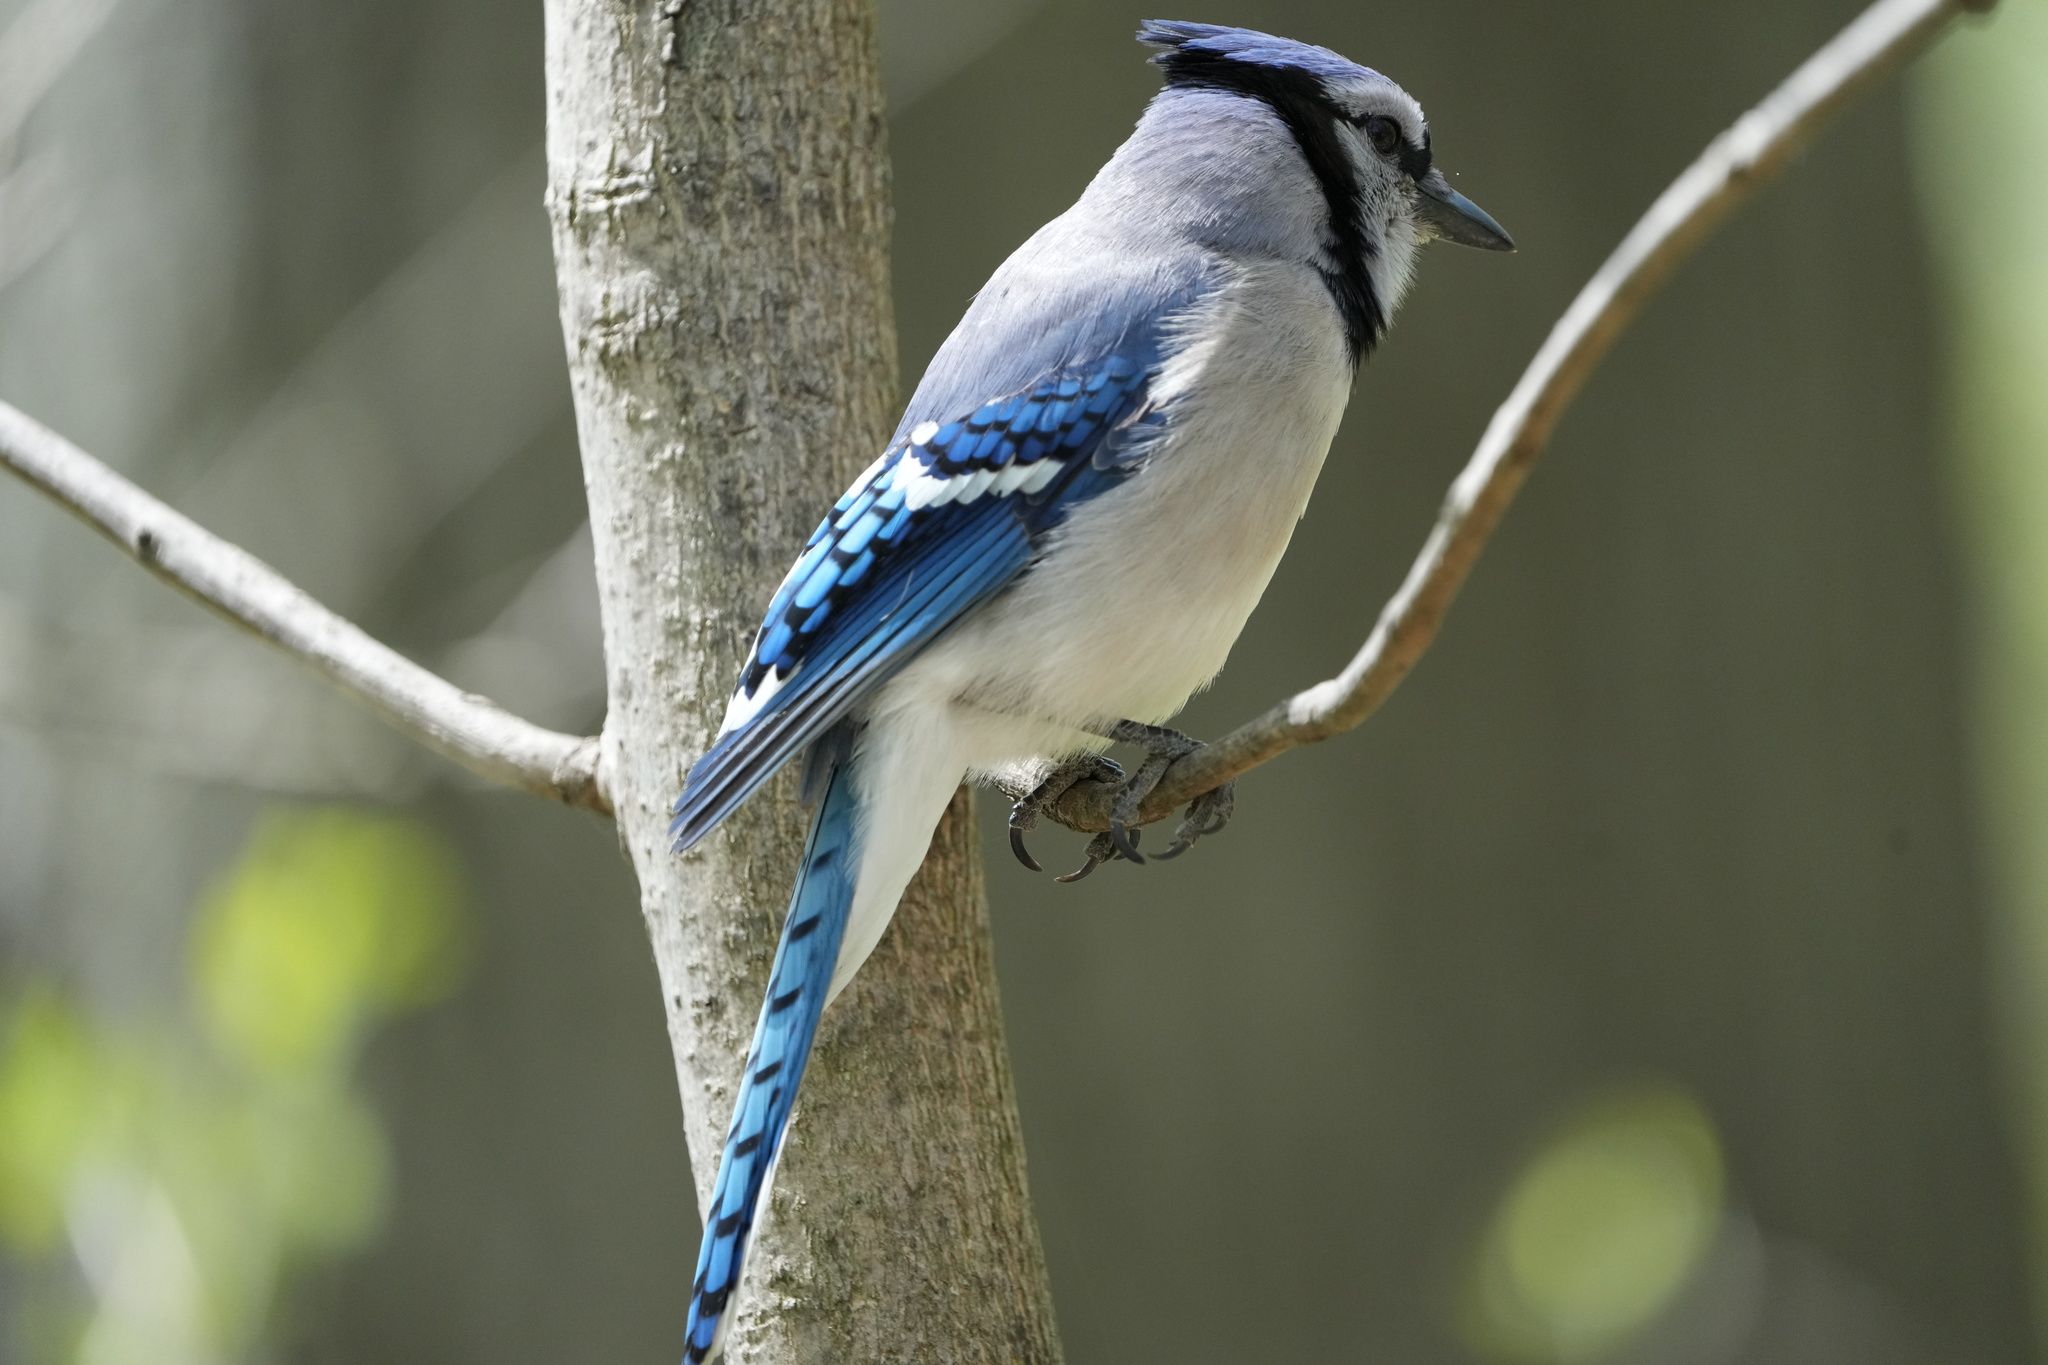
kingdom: Animalia
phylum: Chordata
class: Aves
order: Passeriformes
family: Corvidae
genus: Cyanocitta
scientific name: Cyanocitta cristata
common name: Blue jay
